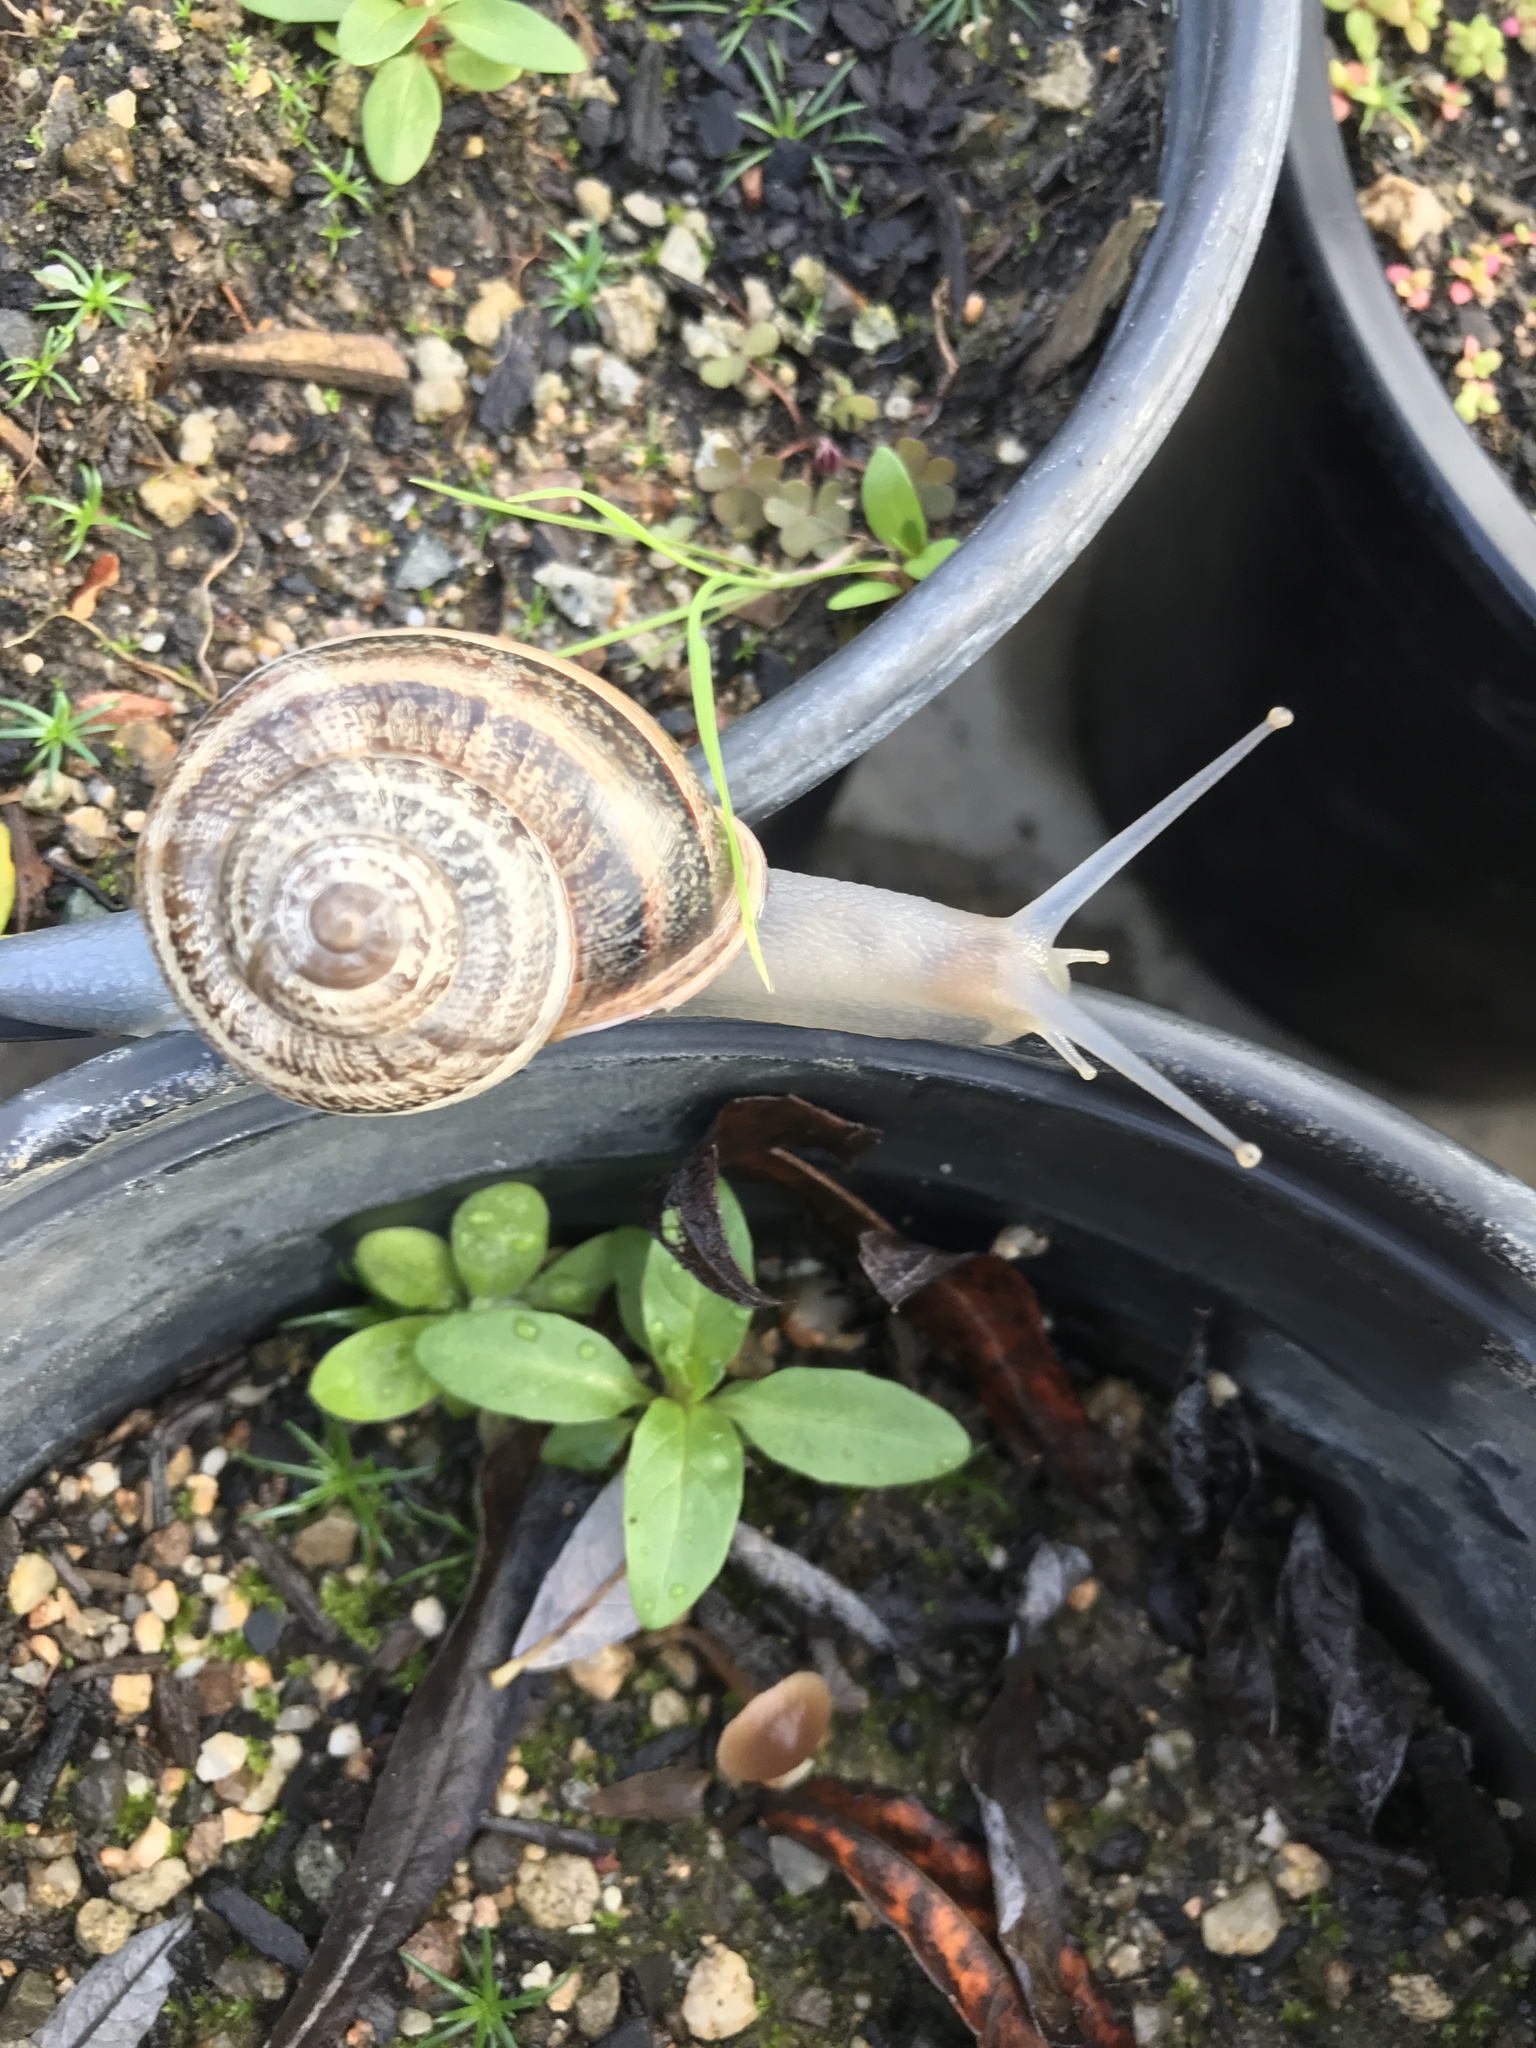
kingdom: Animalia
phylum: Mollusca
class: Gastropoda
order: Stylommatophora
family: Helicidae
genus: Otala
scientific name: Otala lactea
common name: Milk snail
